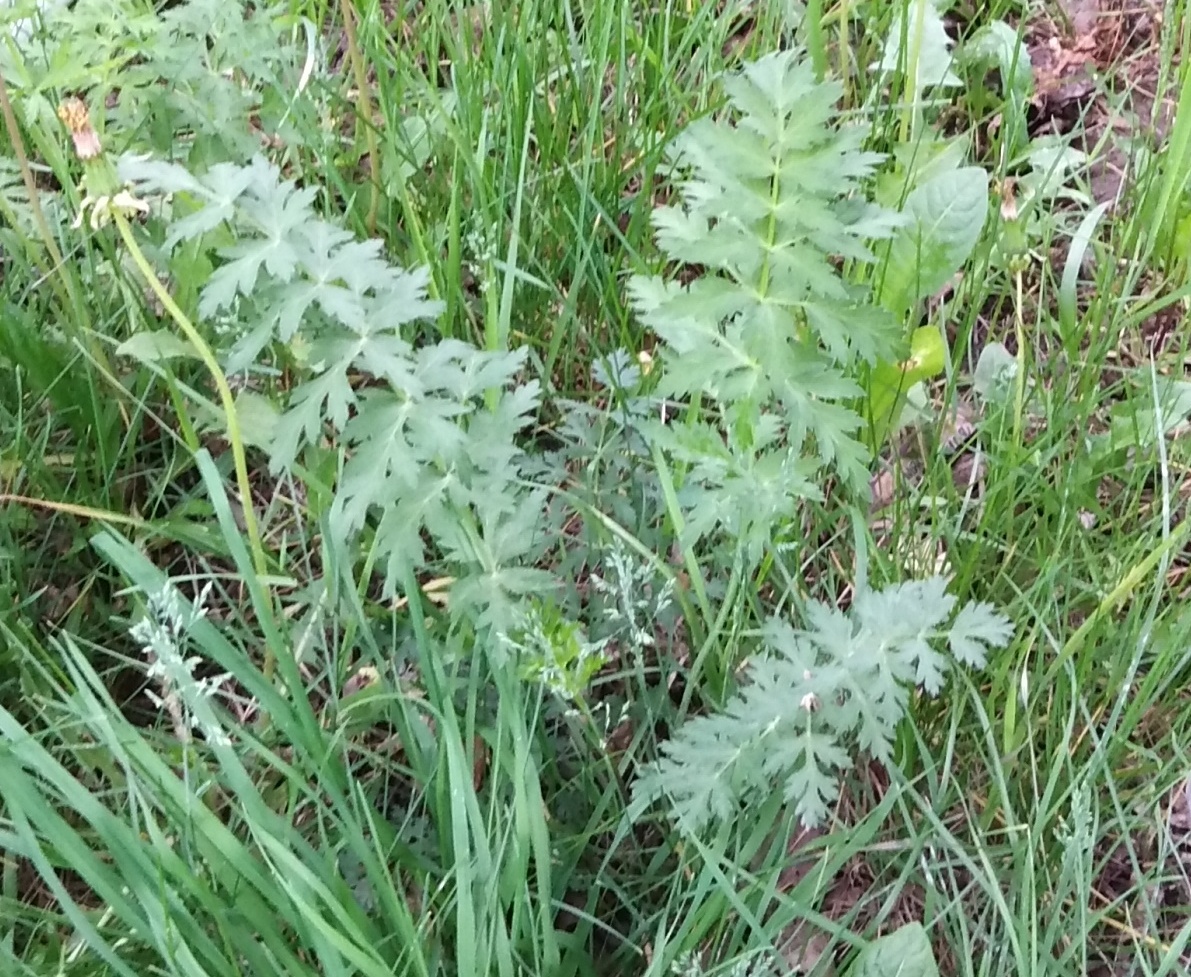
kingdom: Plantae
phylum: Tracheophyta
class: Magnoliopsida
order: Apiales
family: Apiaceae
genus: Seseli
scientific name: Seseli libanotis
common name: Mooncarrot
